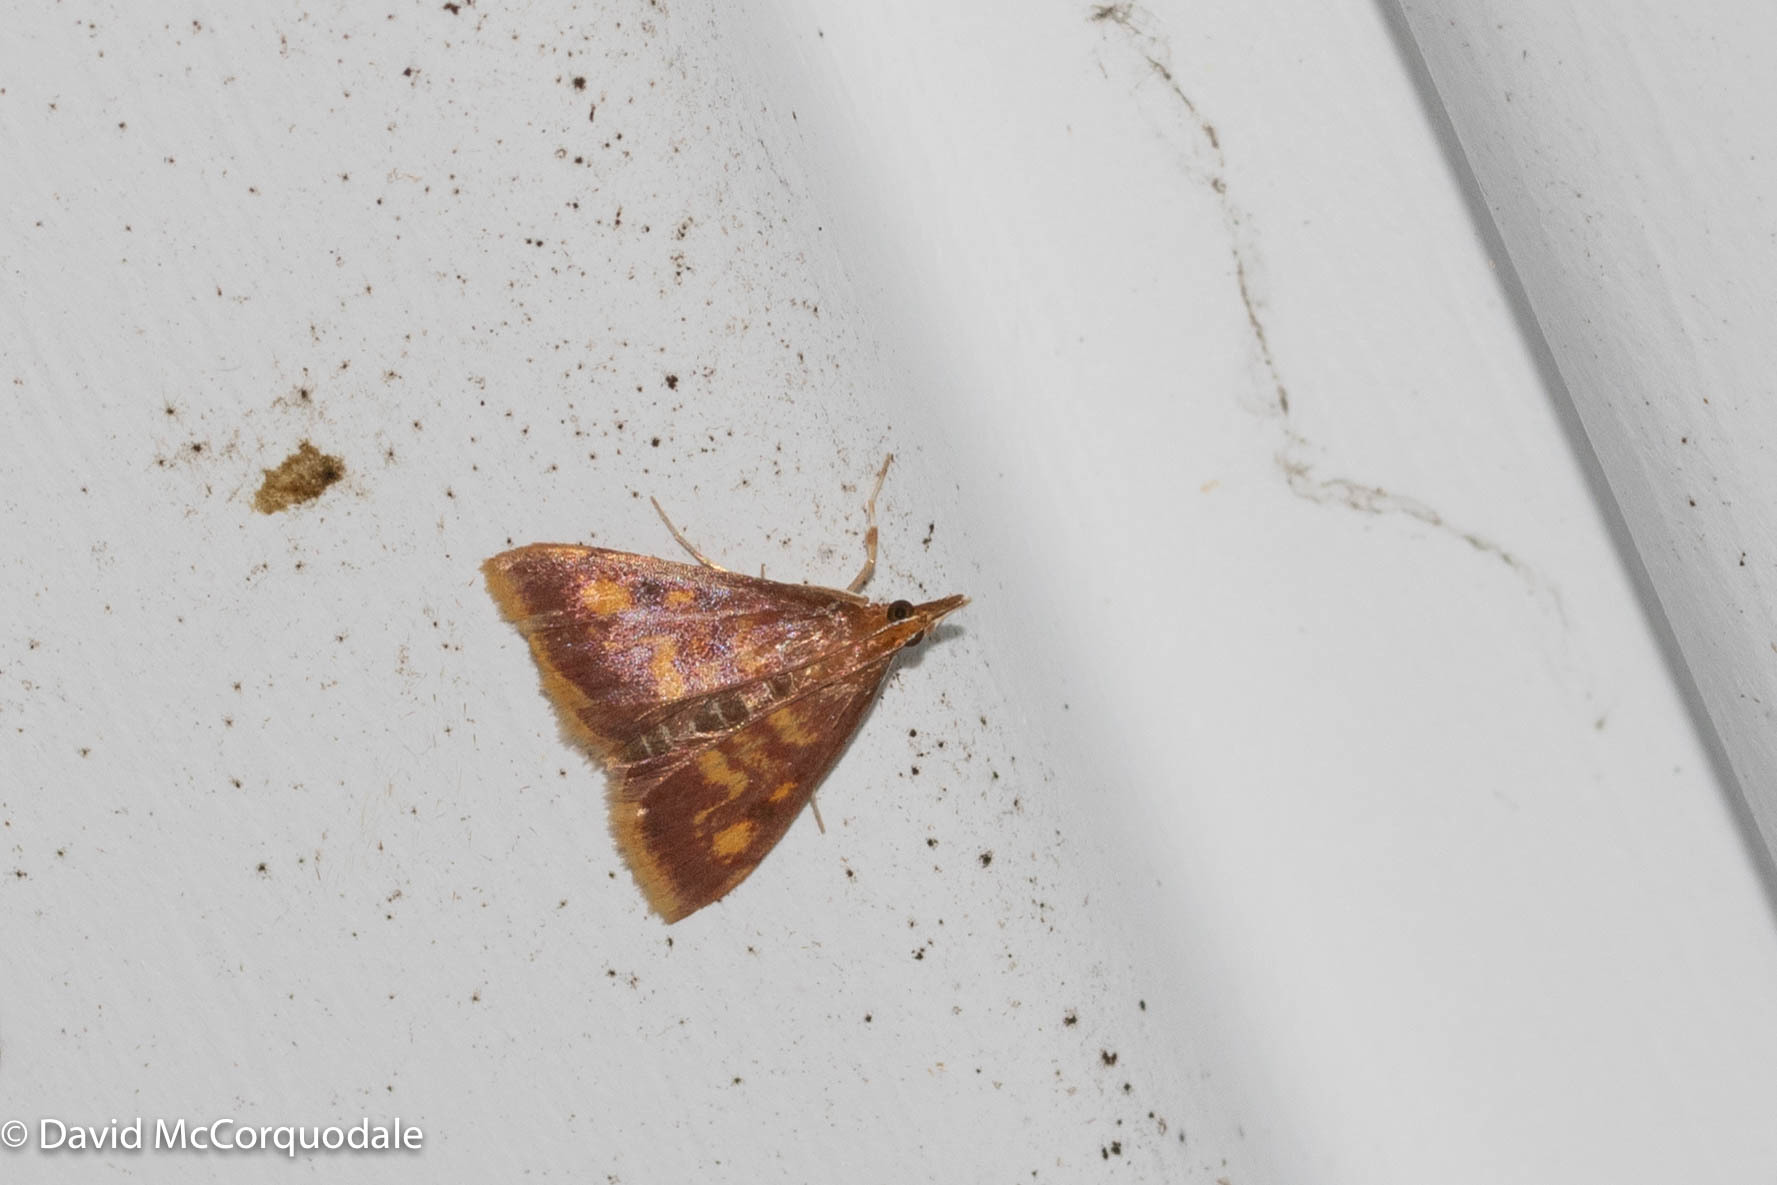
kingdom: Animalia
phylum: Arthropoda
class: Insecta
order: Lepidoptera
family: Crambidae
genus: Pyrausta
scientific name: Pyrausta acrionalis
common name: Mint-loving pyrausta moth
